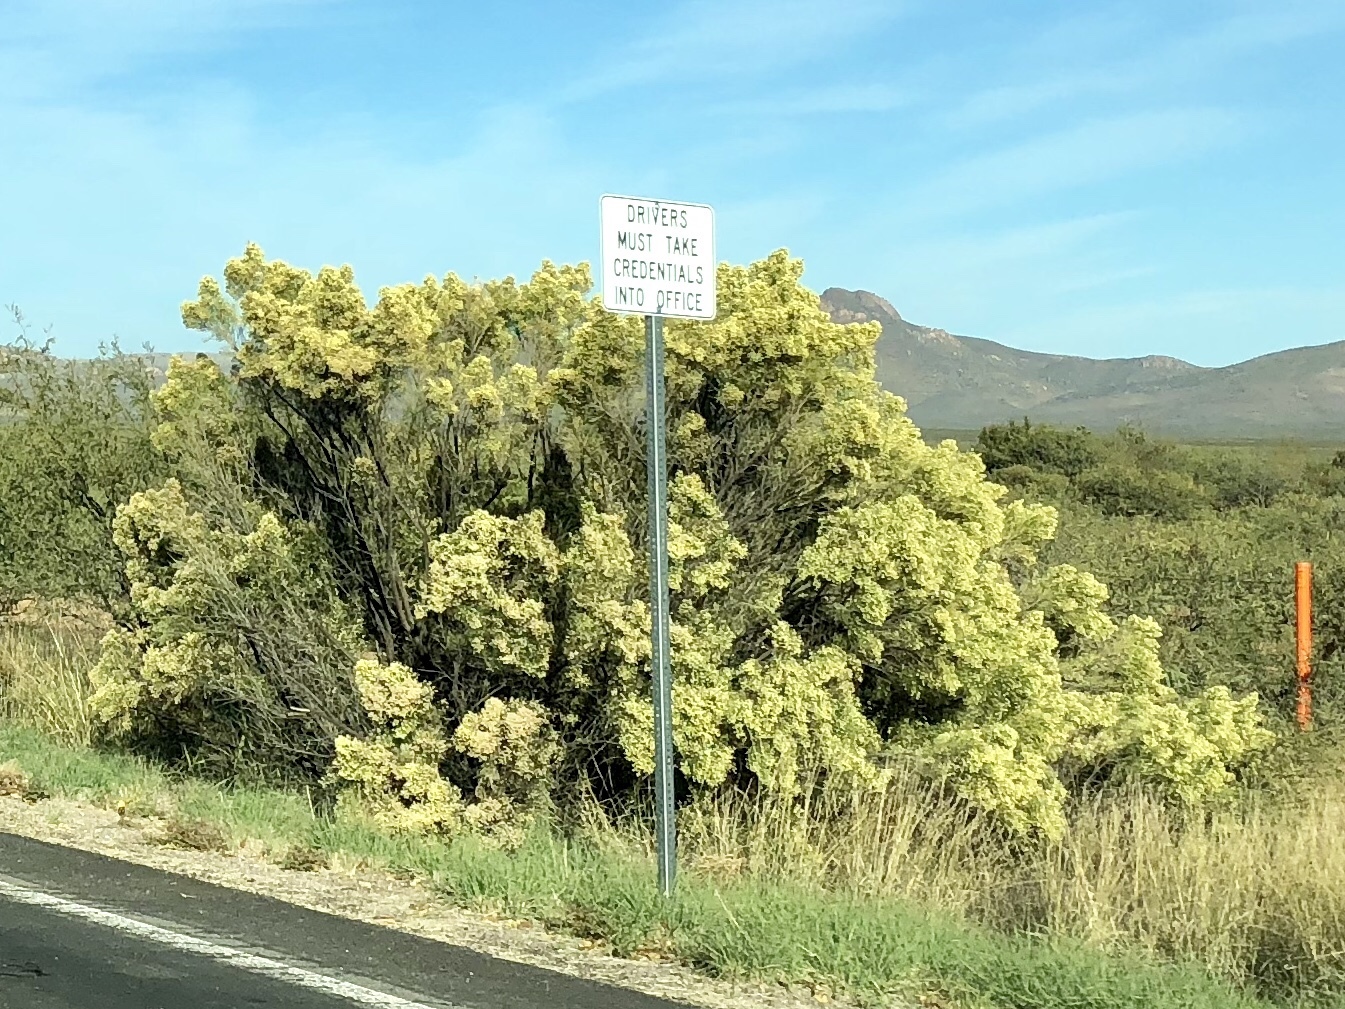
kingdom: Plantae
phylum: Tracheophyta
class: Magnoliopsida
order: Asterales
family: Asteraceae
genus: Baccharis
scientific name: Baccharis sarothroides
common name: Desert-broom
